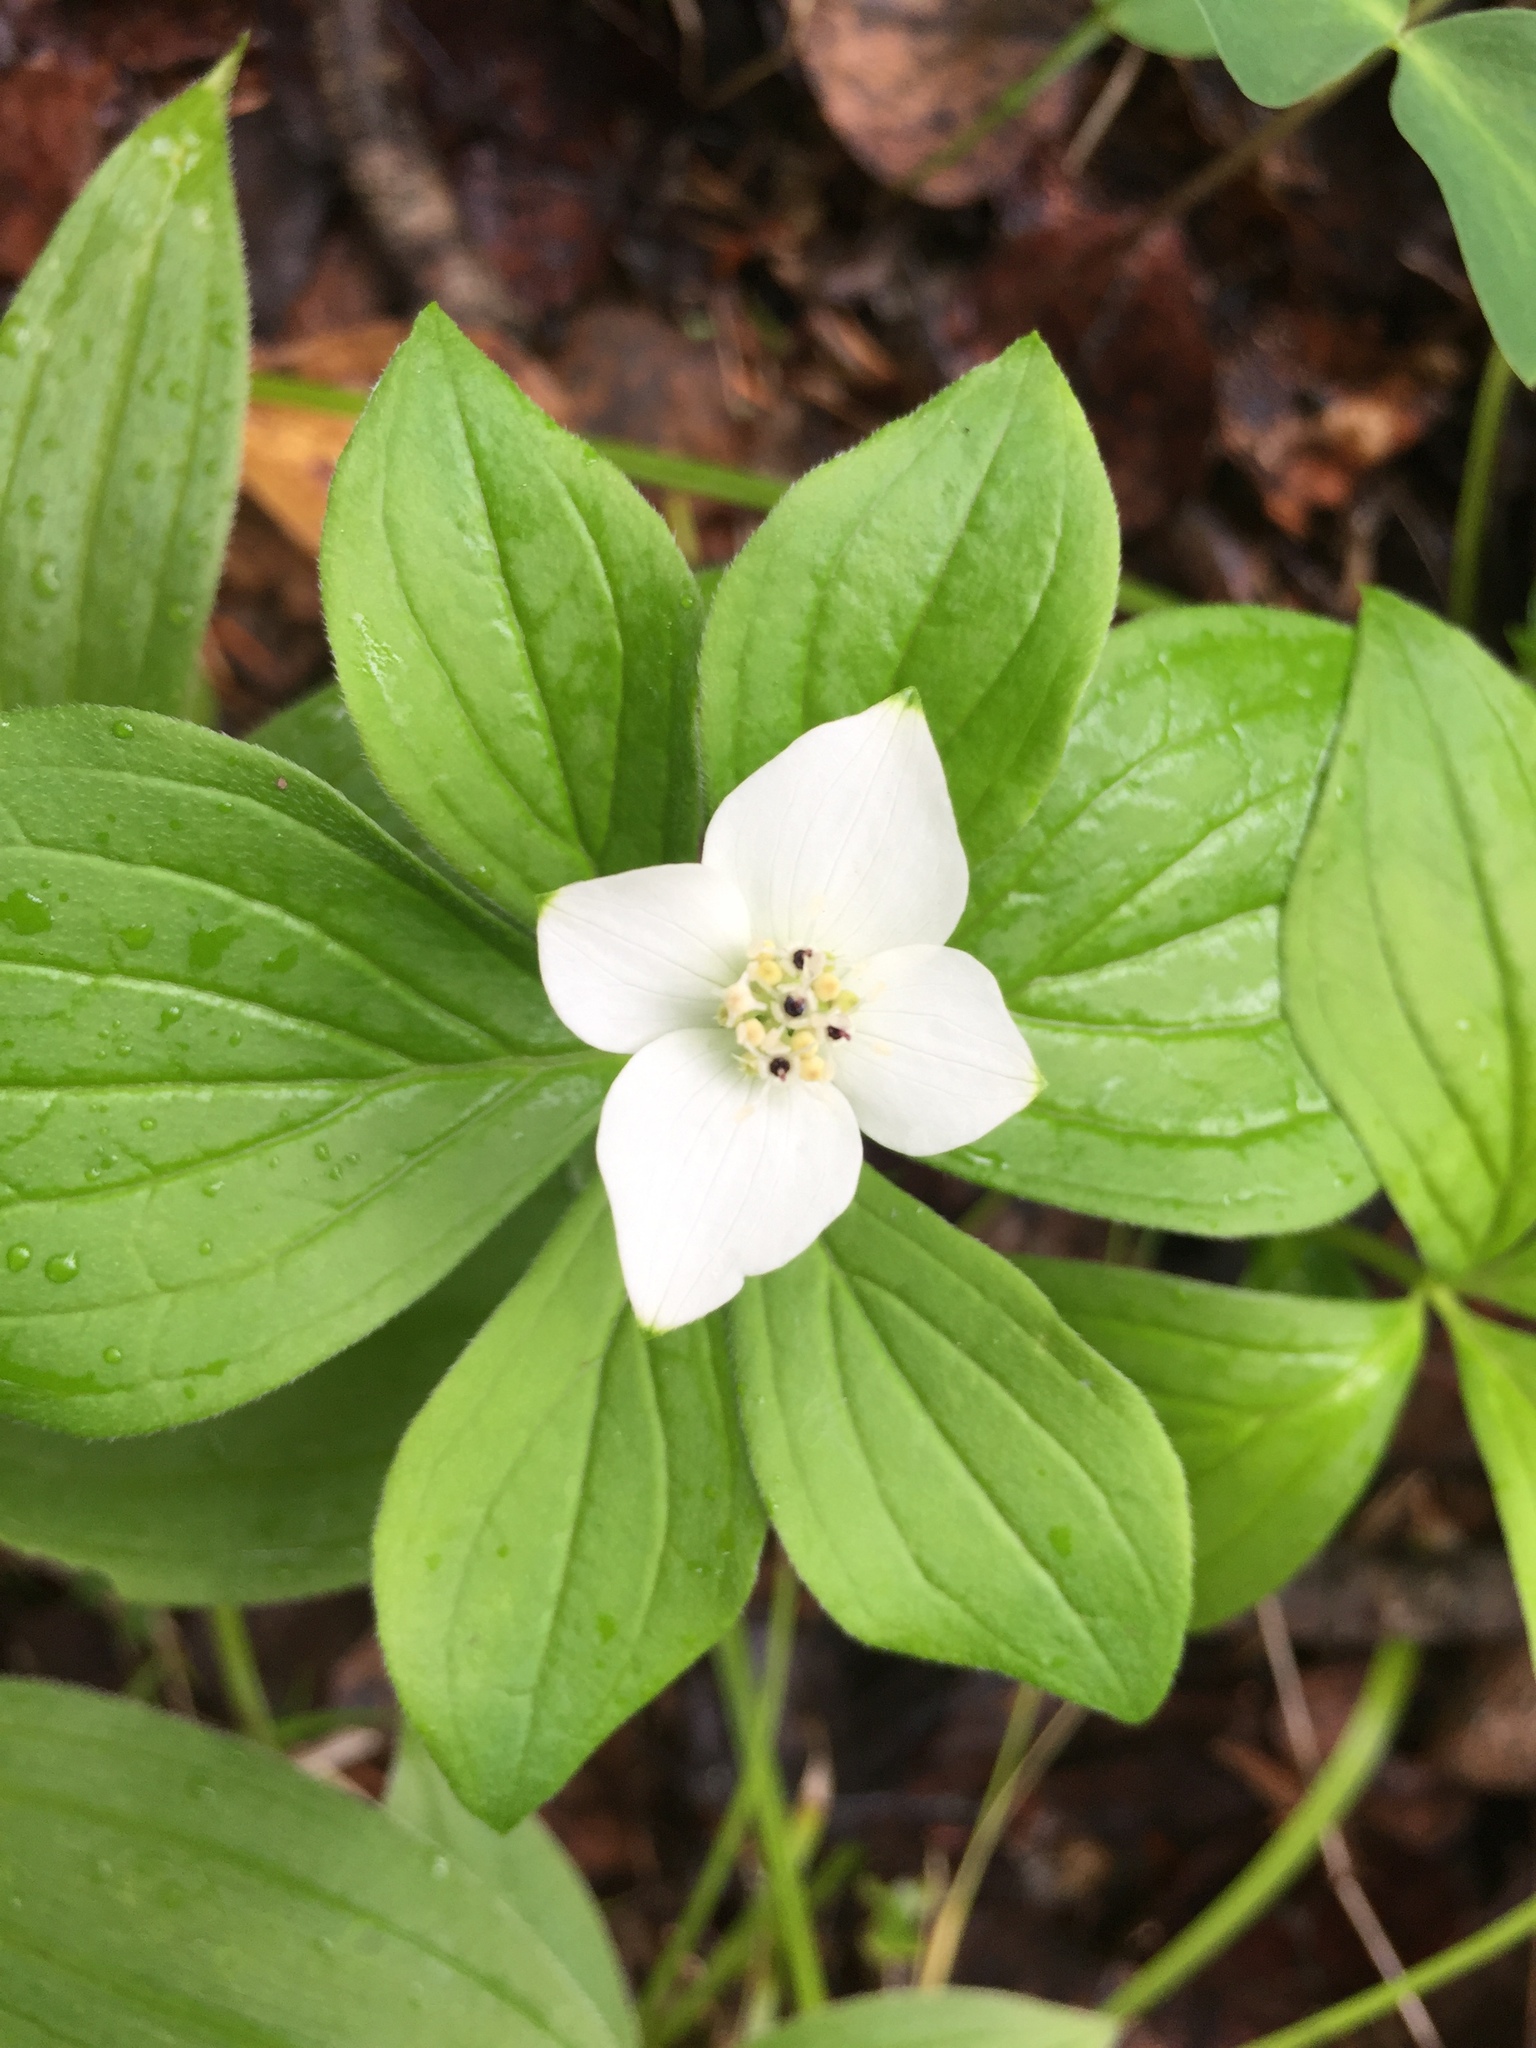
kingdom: Plantae
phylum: Tracheophyta
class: Magnoliopsida
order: Cornales
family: Cornaceae
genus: Cornus
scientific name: Cornus canadensis
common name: Creeping dogwood
